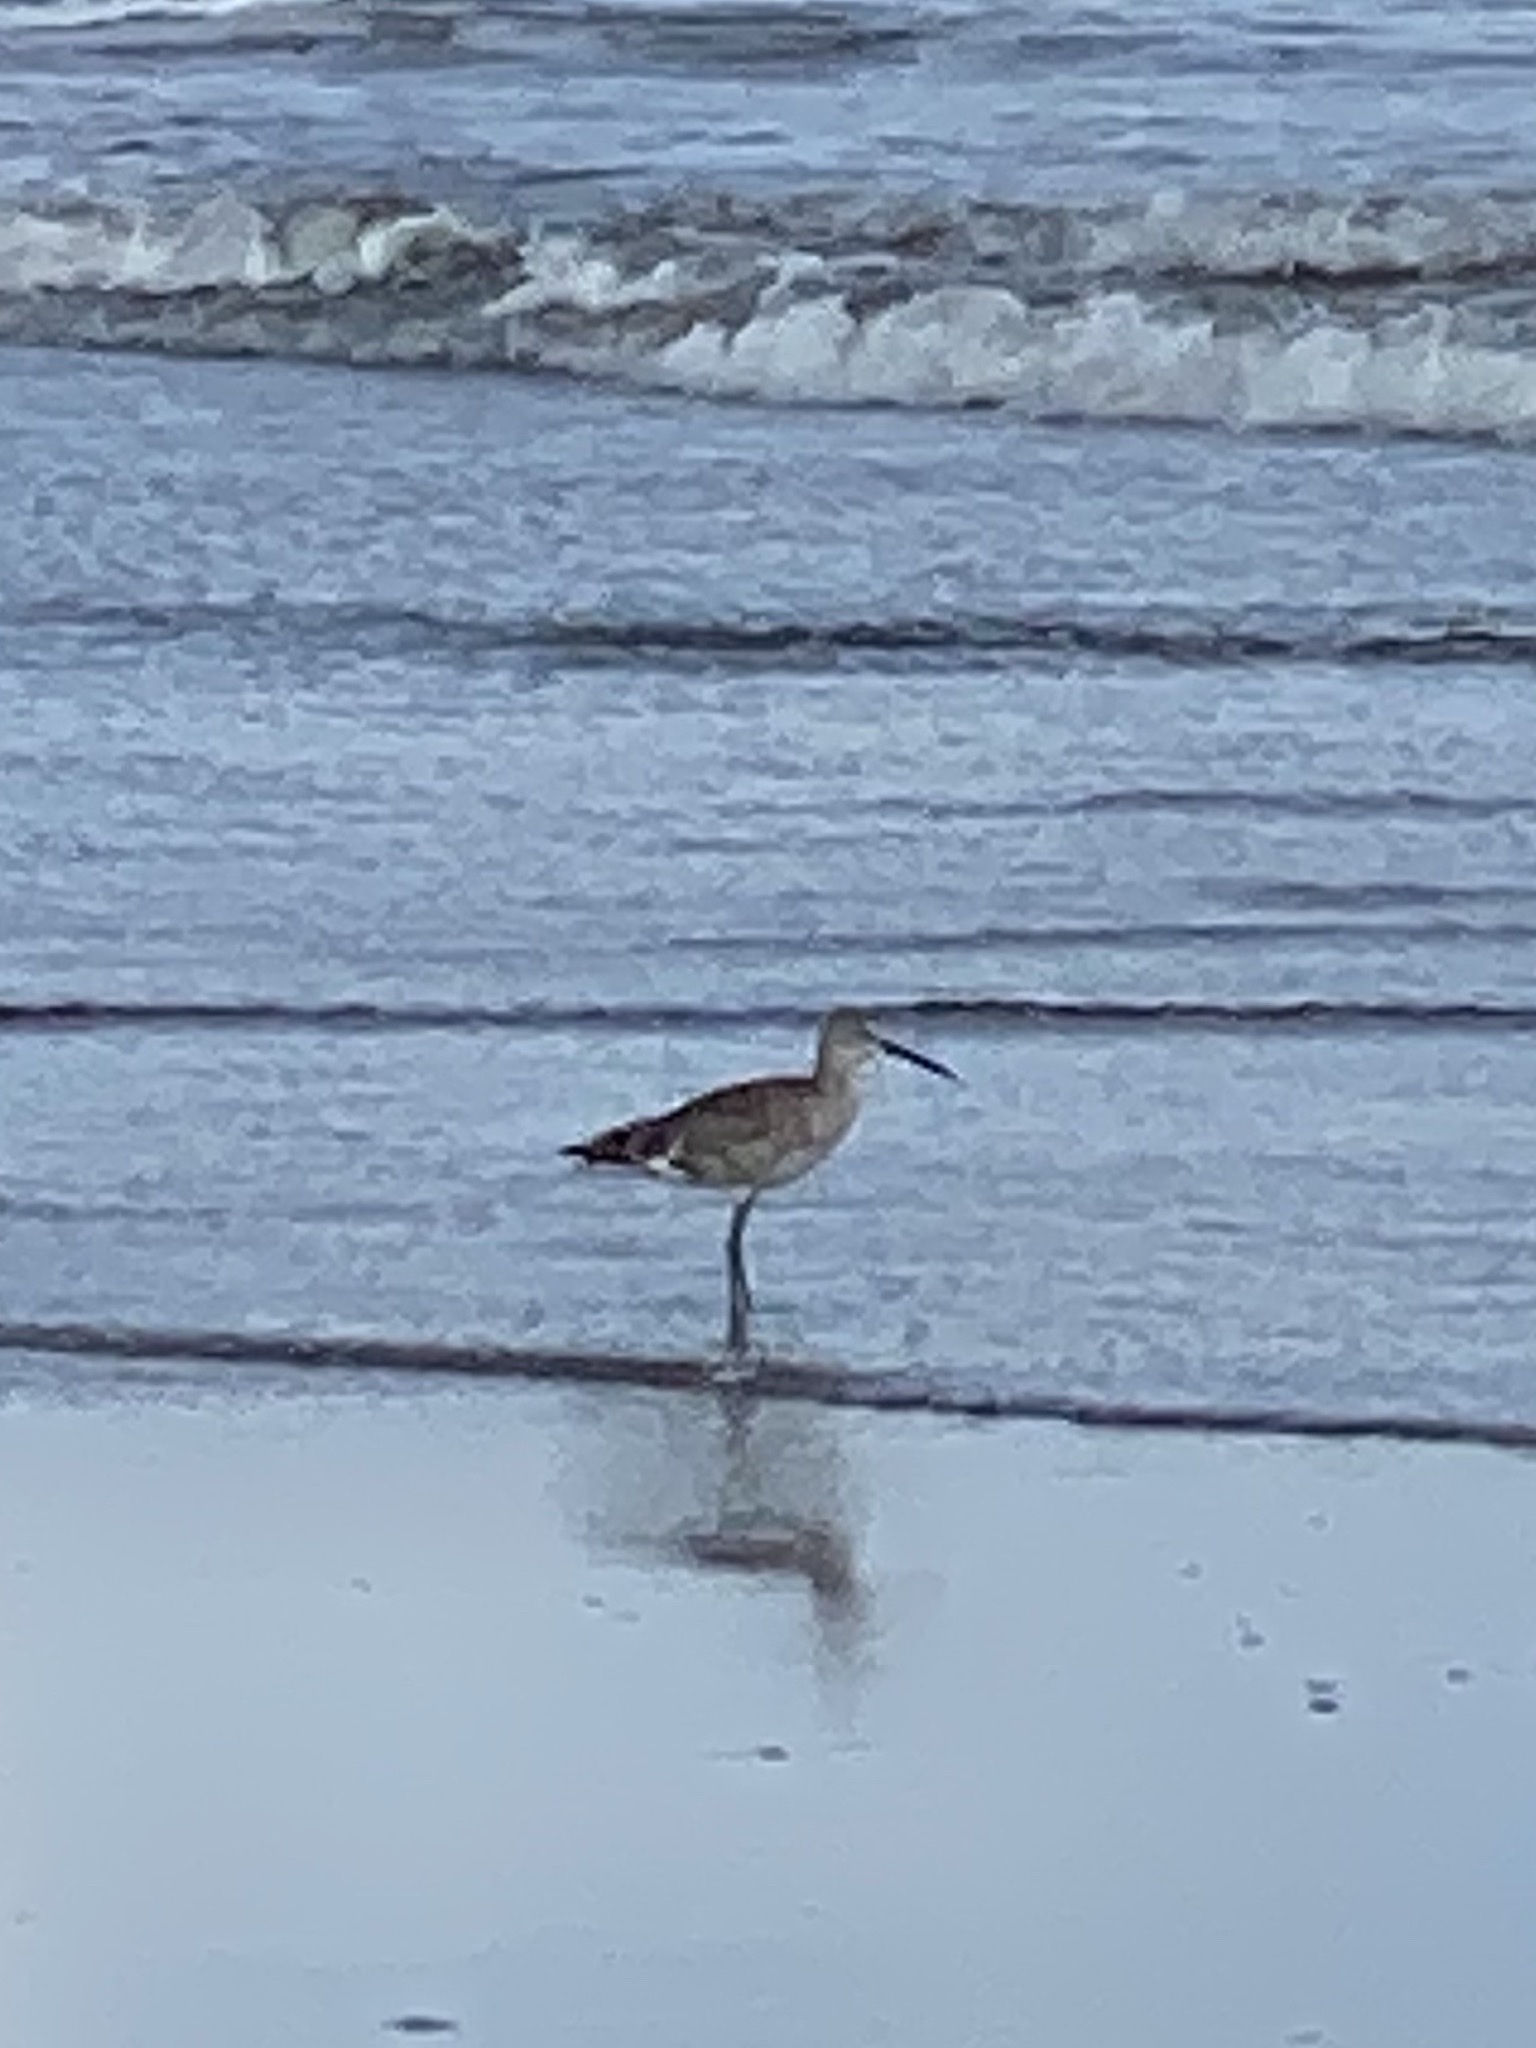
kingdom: Animalia
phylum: Chordata
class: Aves
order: Charadriiformes
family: Scolopacidae
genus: Tringa
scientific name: Tringa semipalmata
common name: Willet
